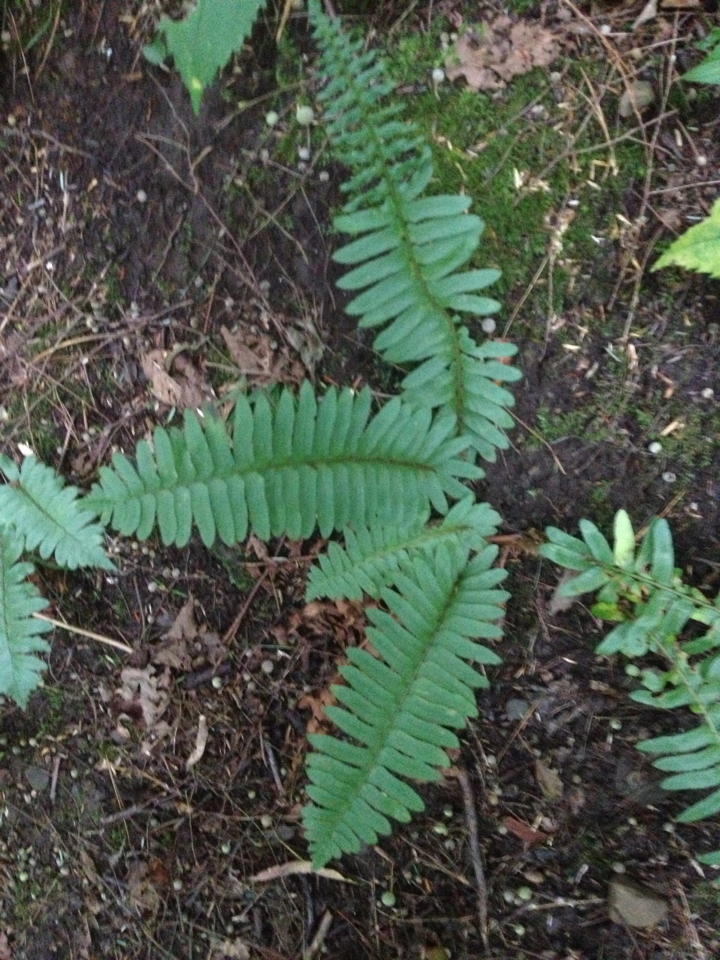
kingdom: Plantae
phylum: Tracheophyta
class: Polypodiopsida
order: Polypodiales
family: Dryopteridaceae
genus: Polystichum
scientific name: Polystichum acrostichoides
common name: Christmas fern
